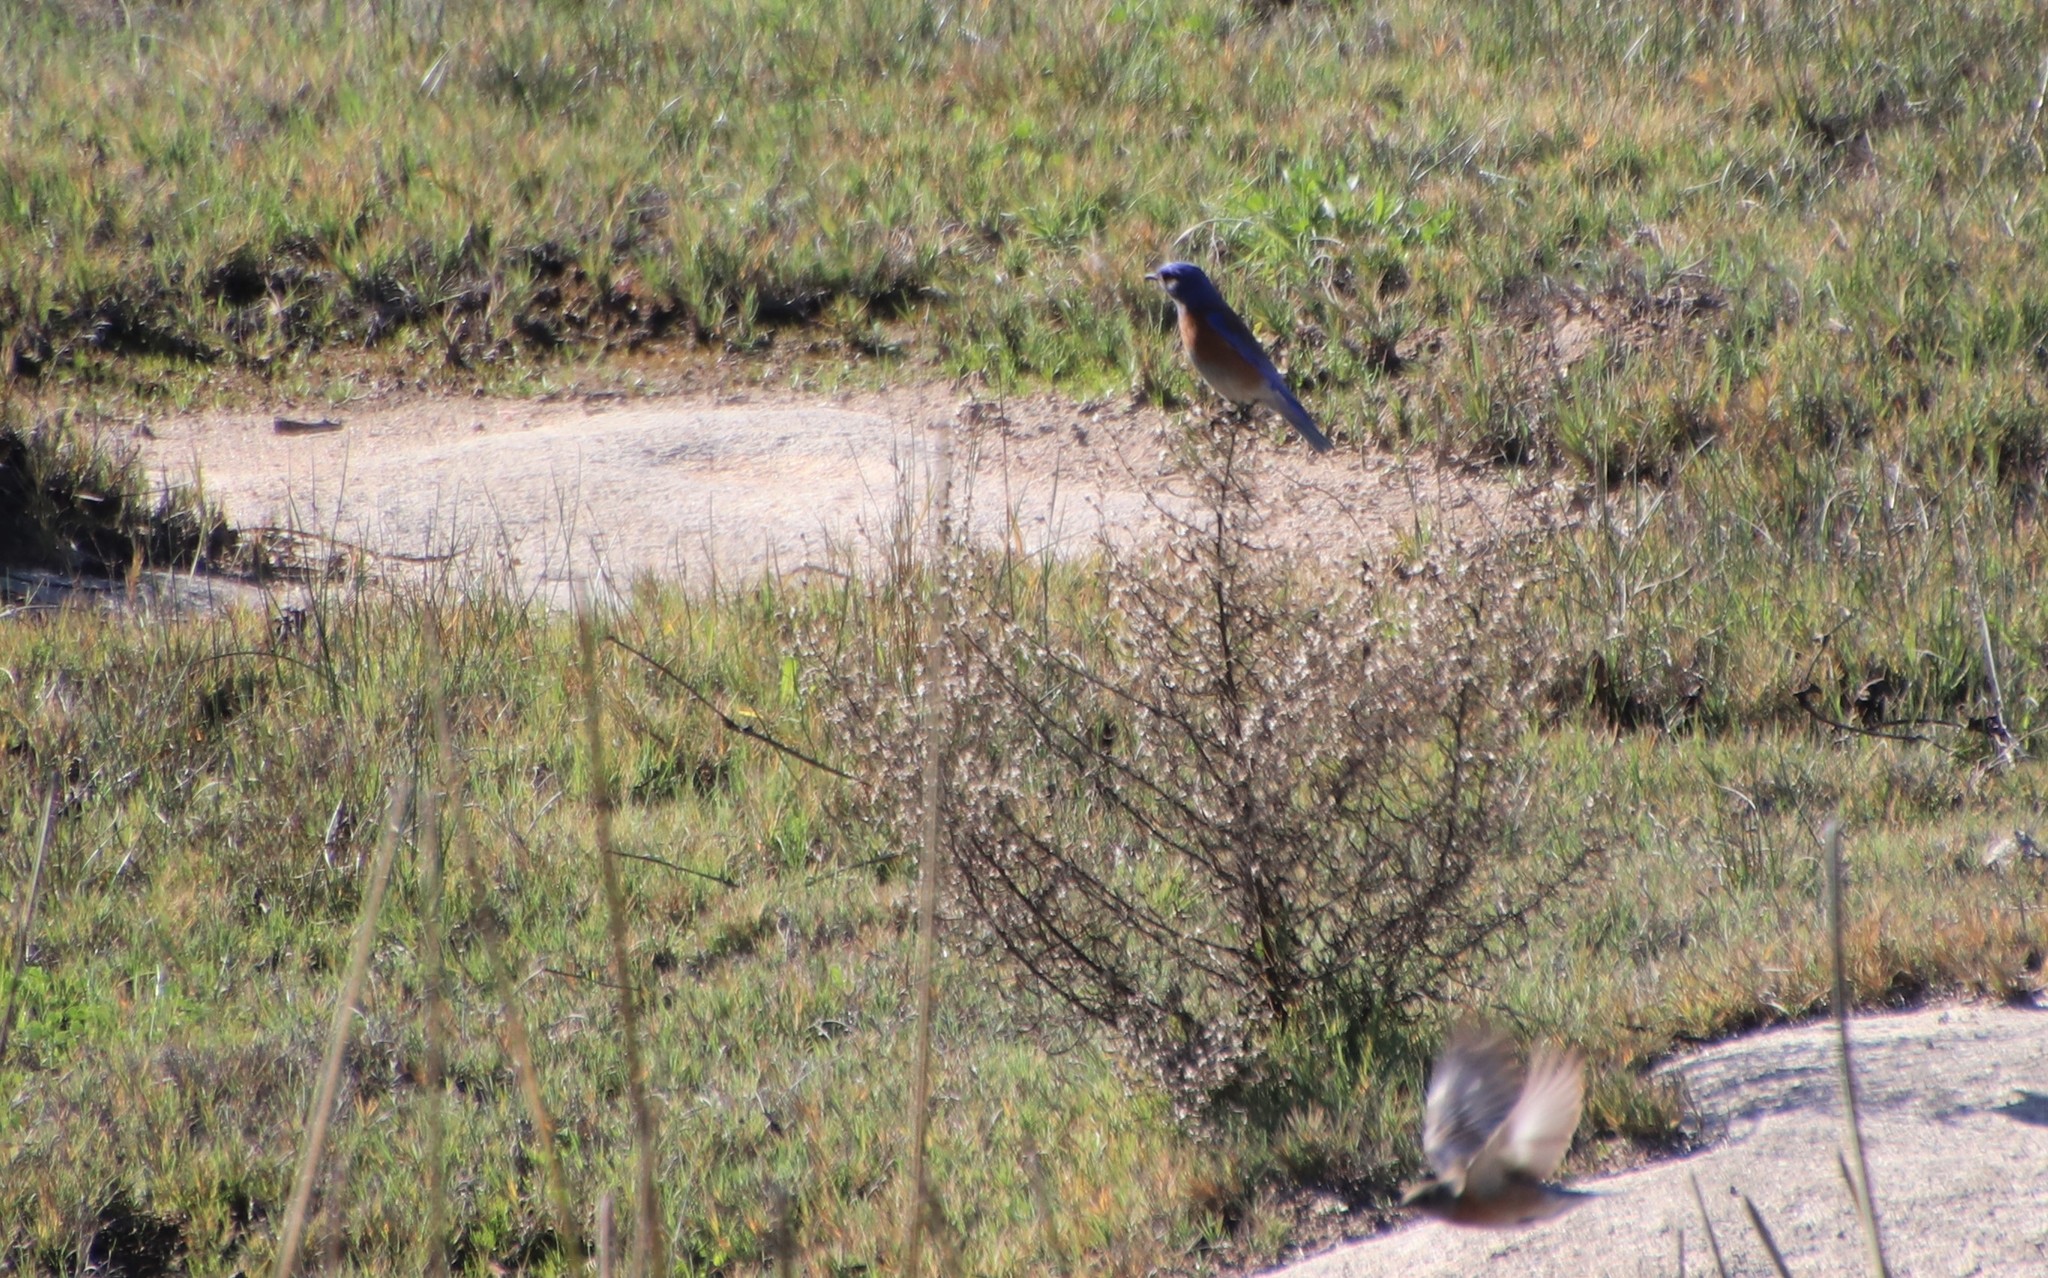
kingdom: Animalia
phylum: Chordata
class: Aves
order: Passeriformes
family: Turdidae
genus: Sialia
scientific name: Sialia mexicana
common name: Western bluebird
